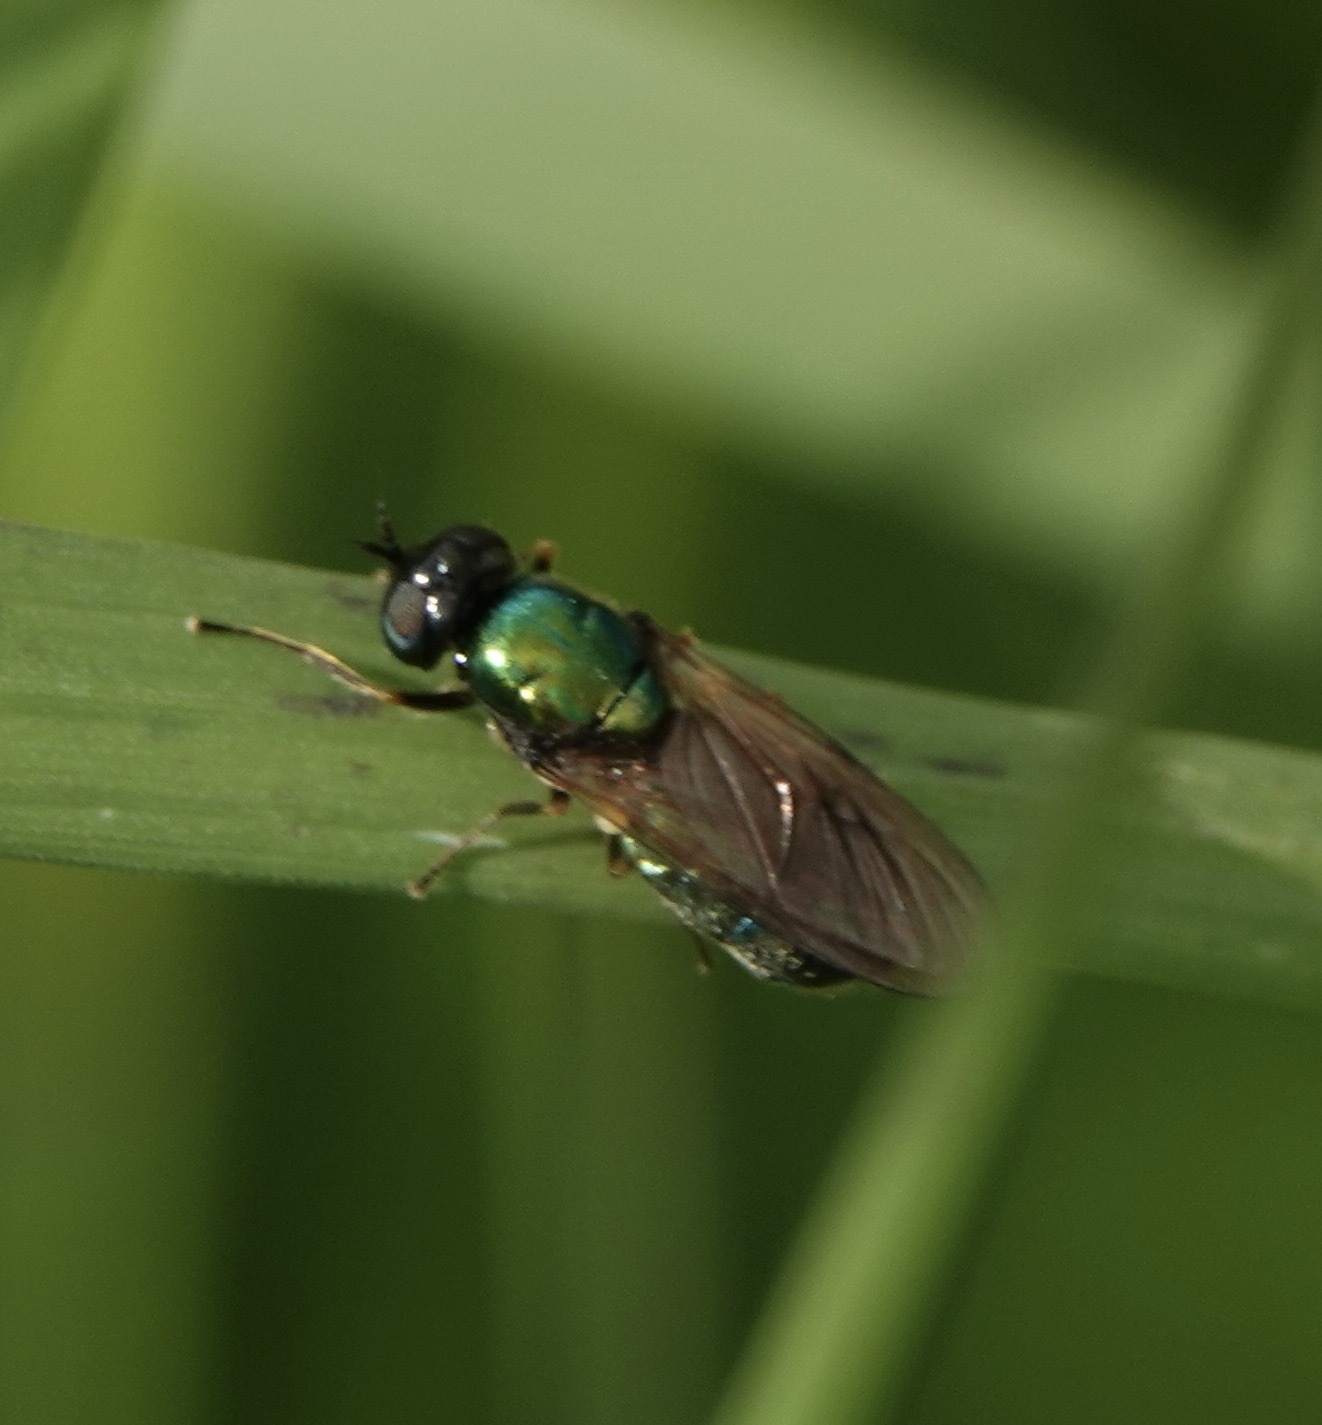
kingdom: Animalia
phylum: Arthropoda
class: Insecta
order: Diptera
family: Stratiomyidae
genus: Chloromyia
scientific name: Chloromyia formosa
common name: Soldier fly
